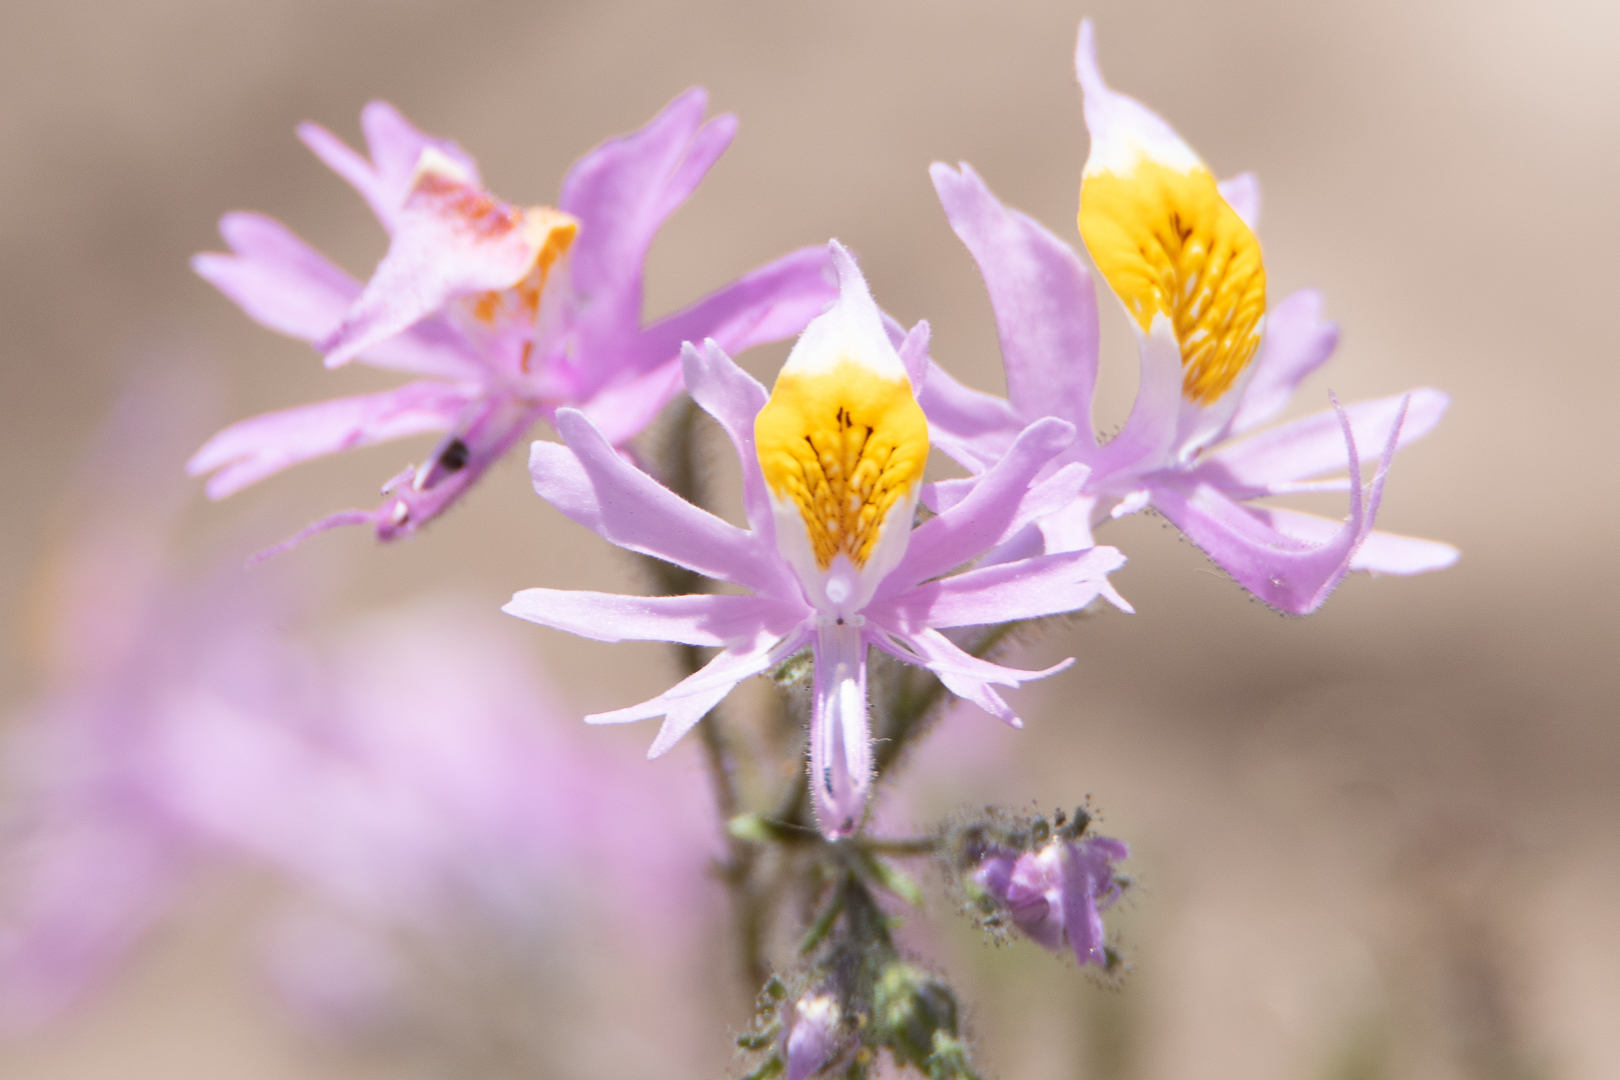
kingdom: Plantae
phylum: Tracheophyta
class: Magnoliopsida
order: Solanales
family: Solanaceae
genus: Schizanthus
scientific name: Schizanthus hookeri
